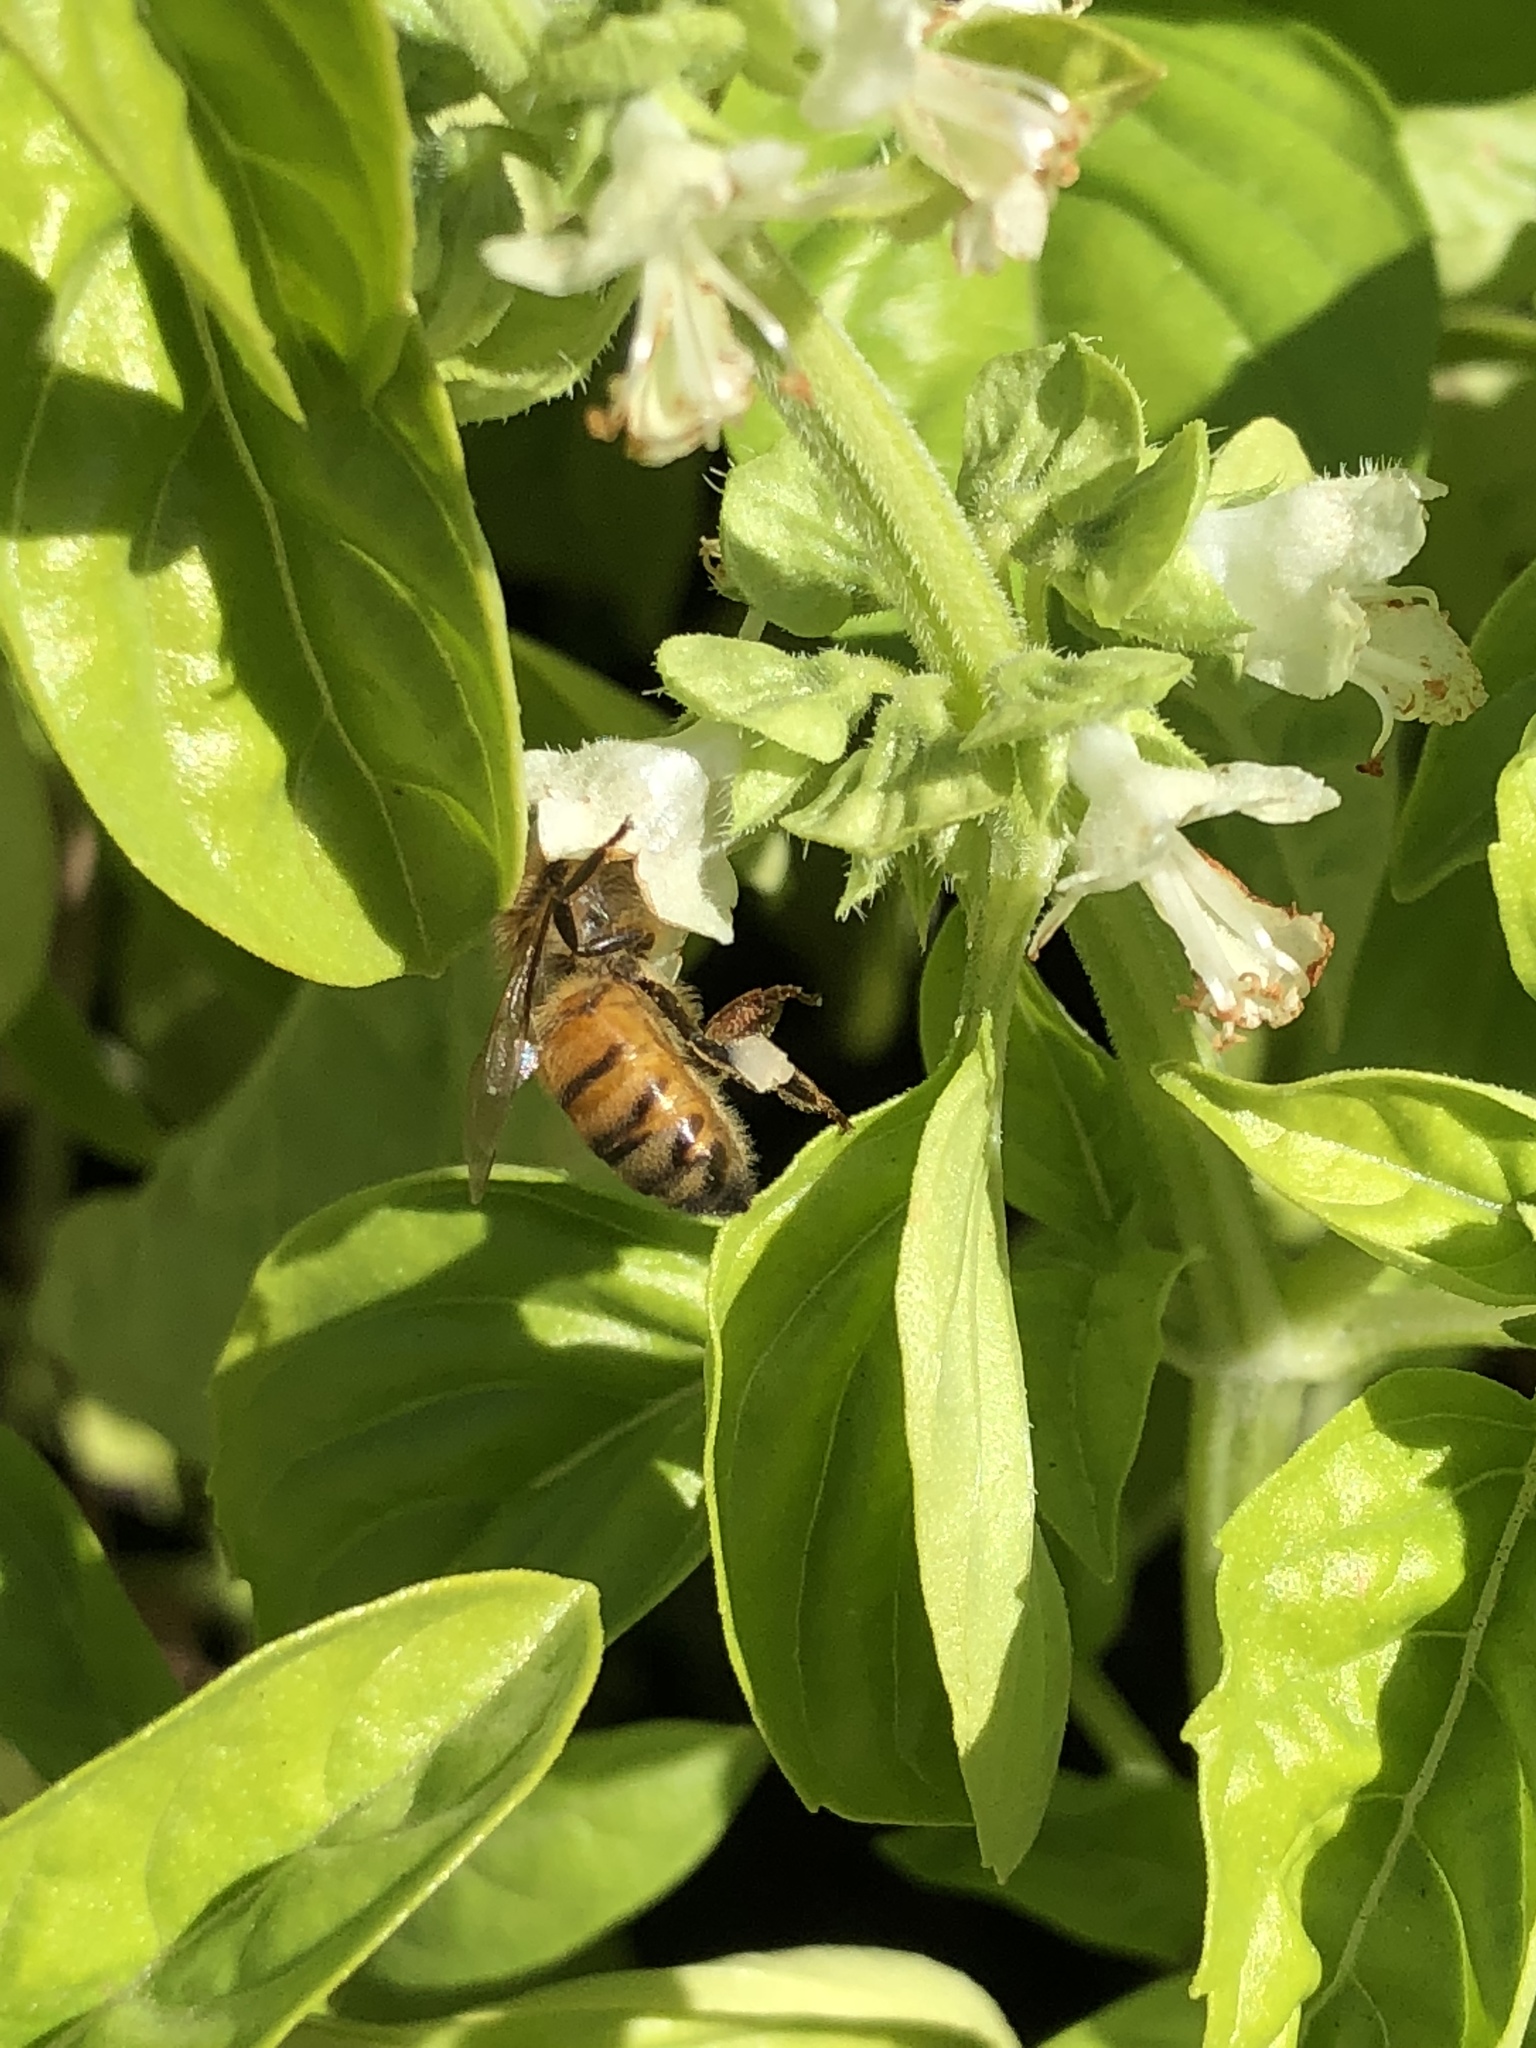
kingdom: Animalia
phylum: Arthropoda
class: Insecta
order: Hymenoptera
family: Apidae
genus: Apis
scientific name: Apis mellifera
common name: Honey bee
